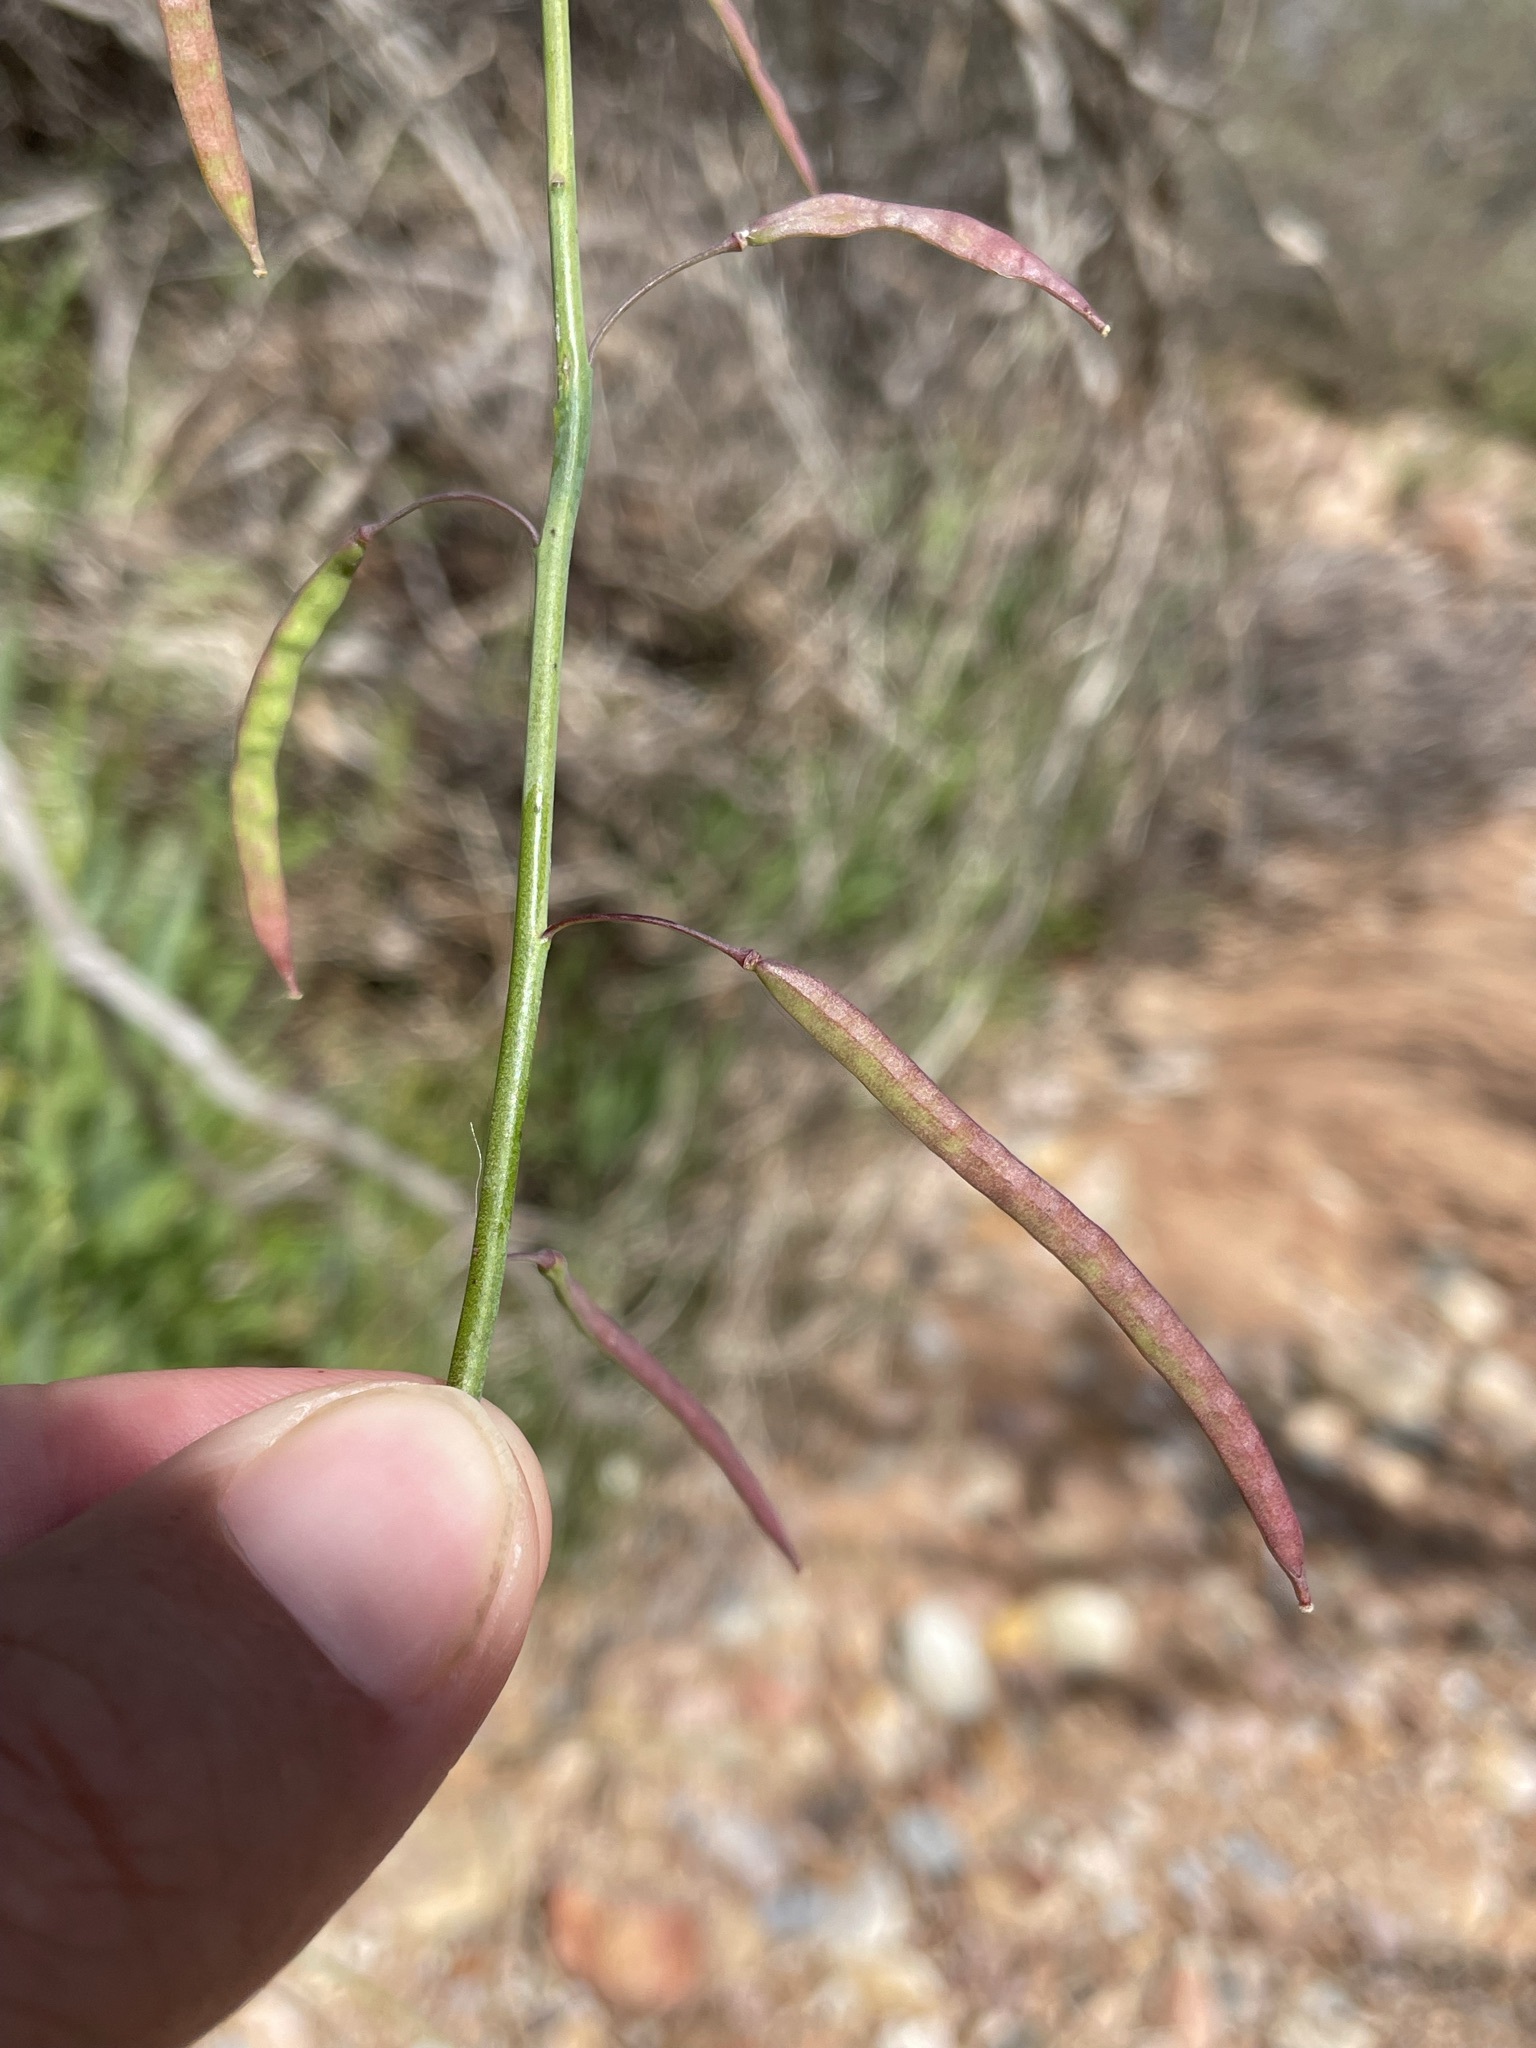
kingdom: Plantae
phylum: Tracheophyta
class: Magnoliopsida
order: Brassicales
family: Brassicaceae
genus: Heliophila
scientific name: Heliophila laciniata
